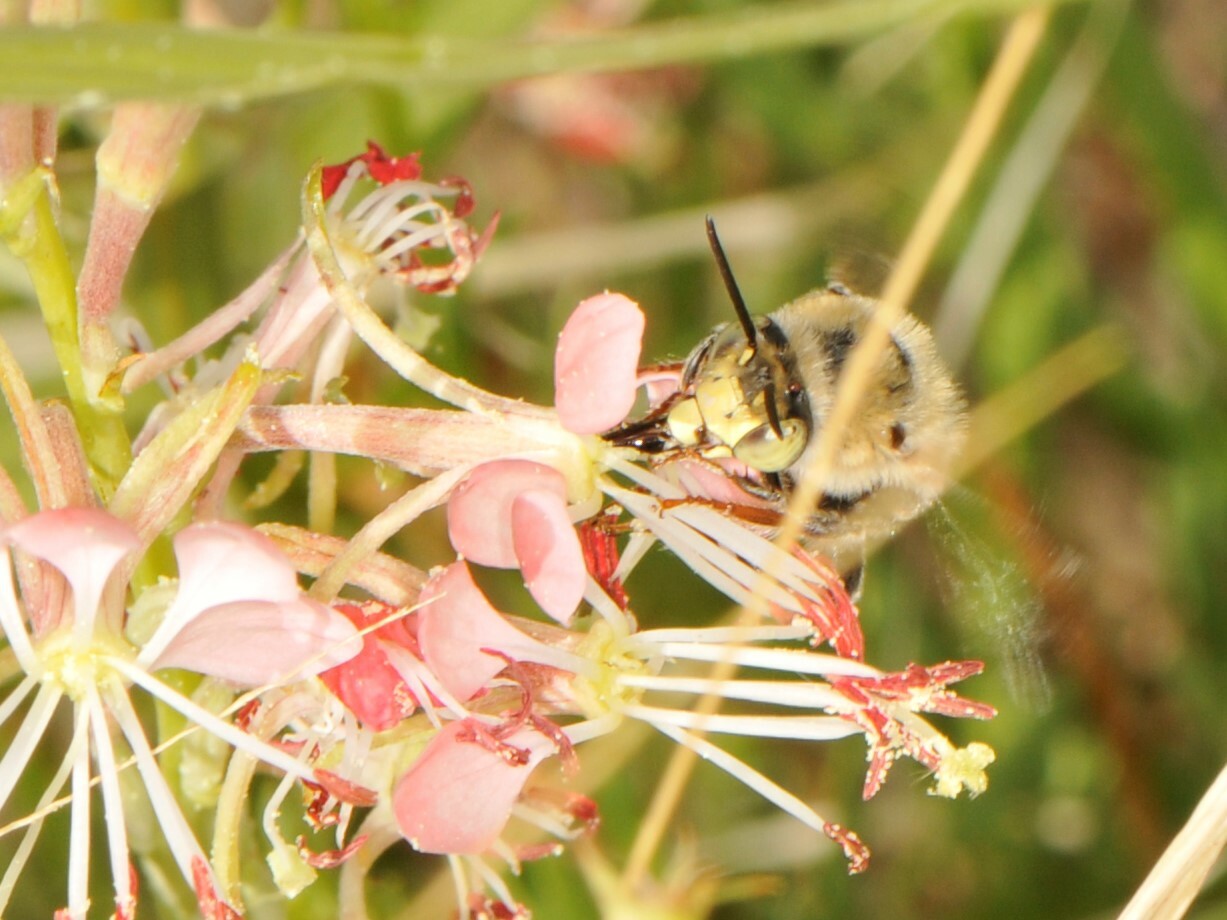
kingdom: Animalia
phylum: Arthropoda
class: Insecta
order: Hymenoptera
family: Apidae
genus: Anthophora
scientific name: Anthophora californica
